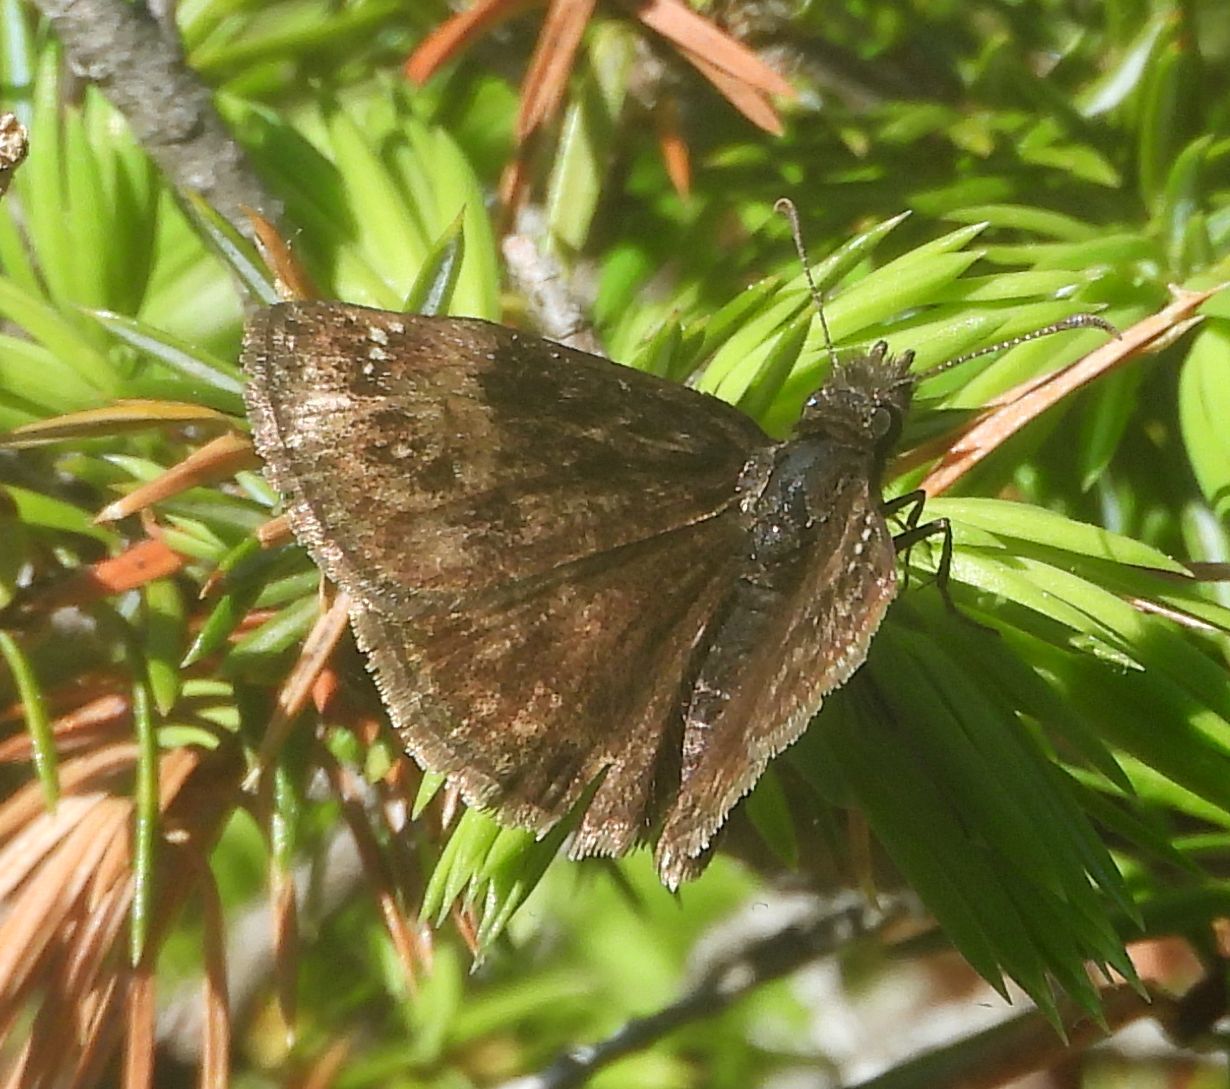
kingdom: Animalia
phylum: Arthropoda
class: Insecta
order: Lepidoptera
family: Hesperiidae
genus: Erynnis
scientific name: Erynnis baptisiae
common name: Wild indigo duskywing
